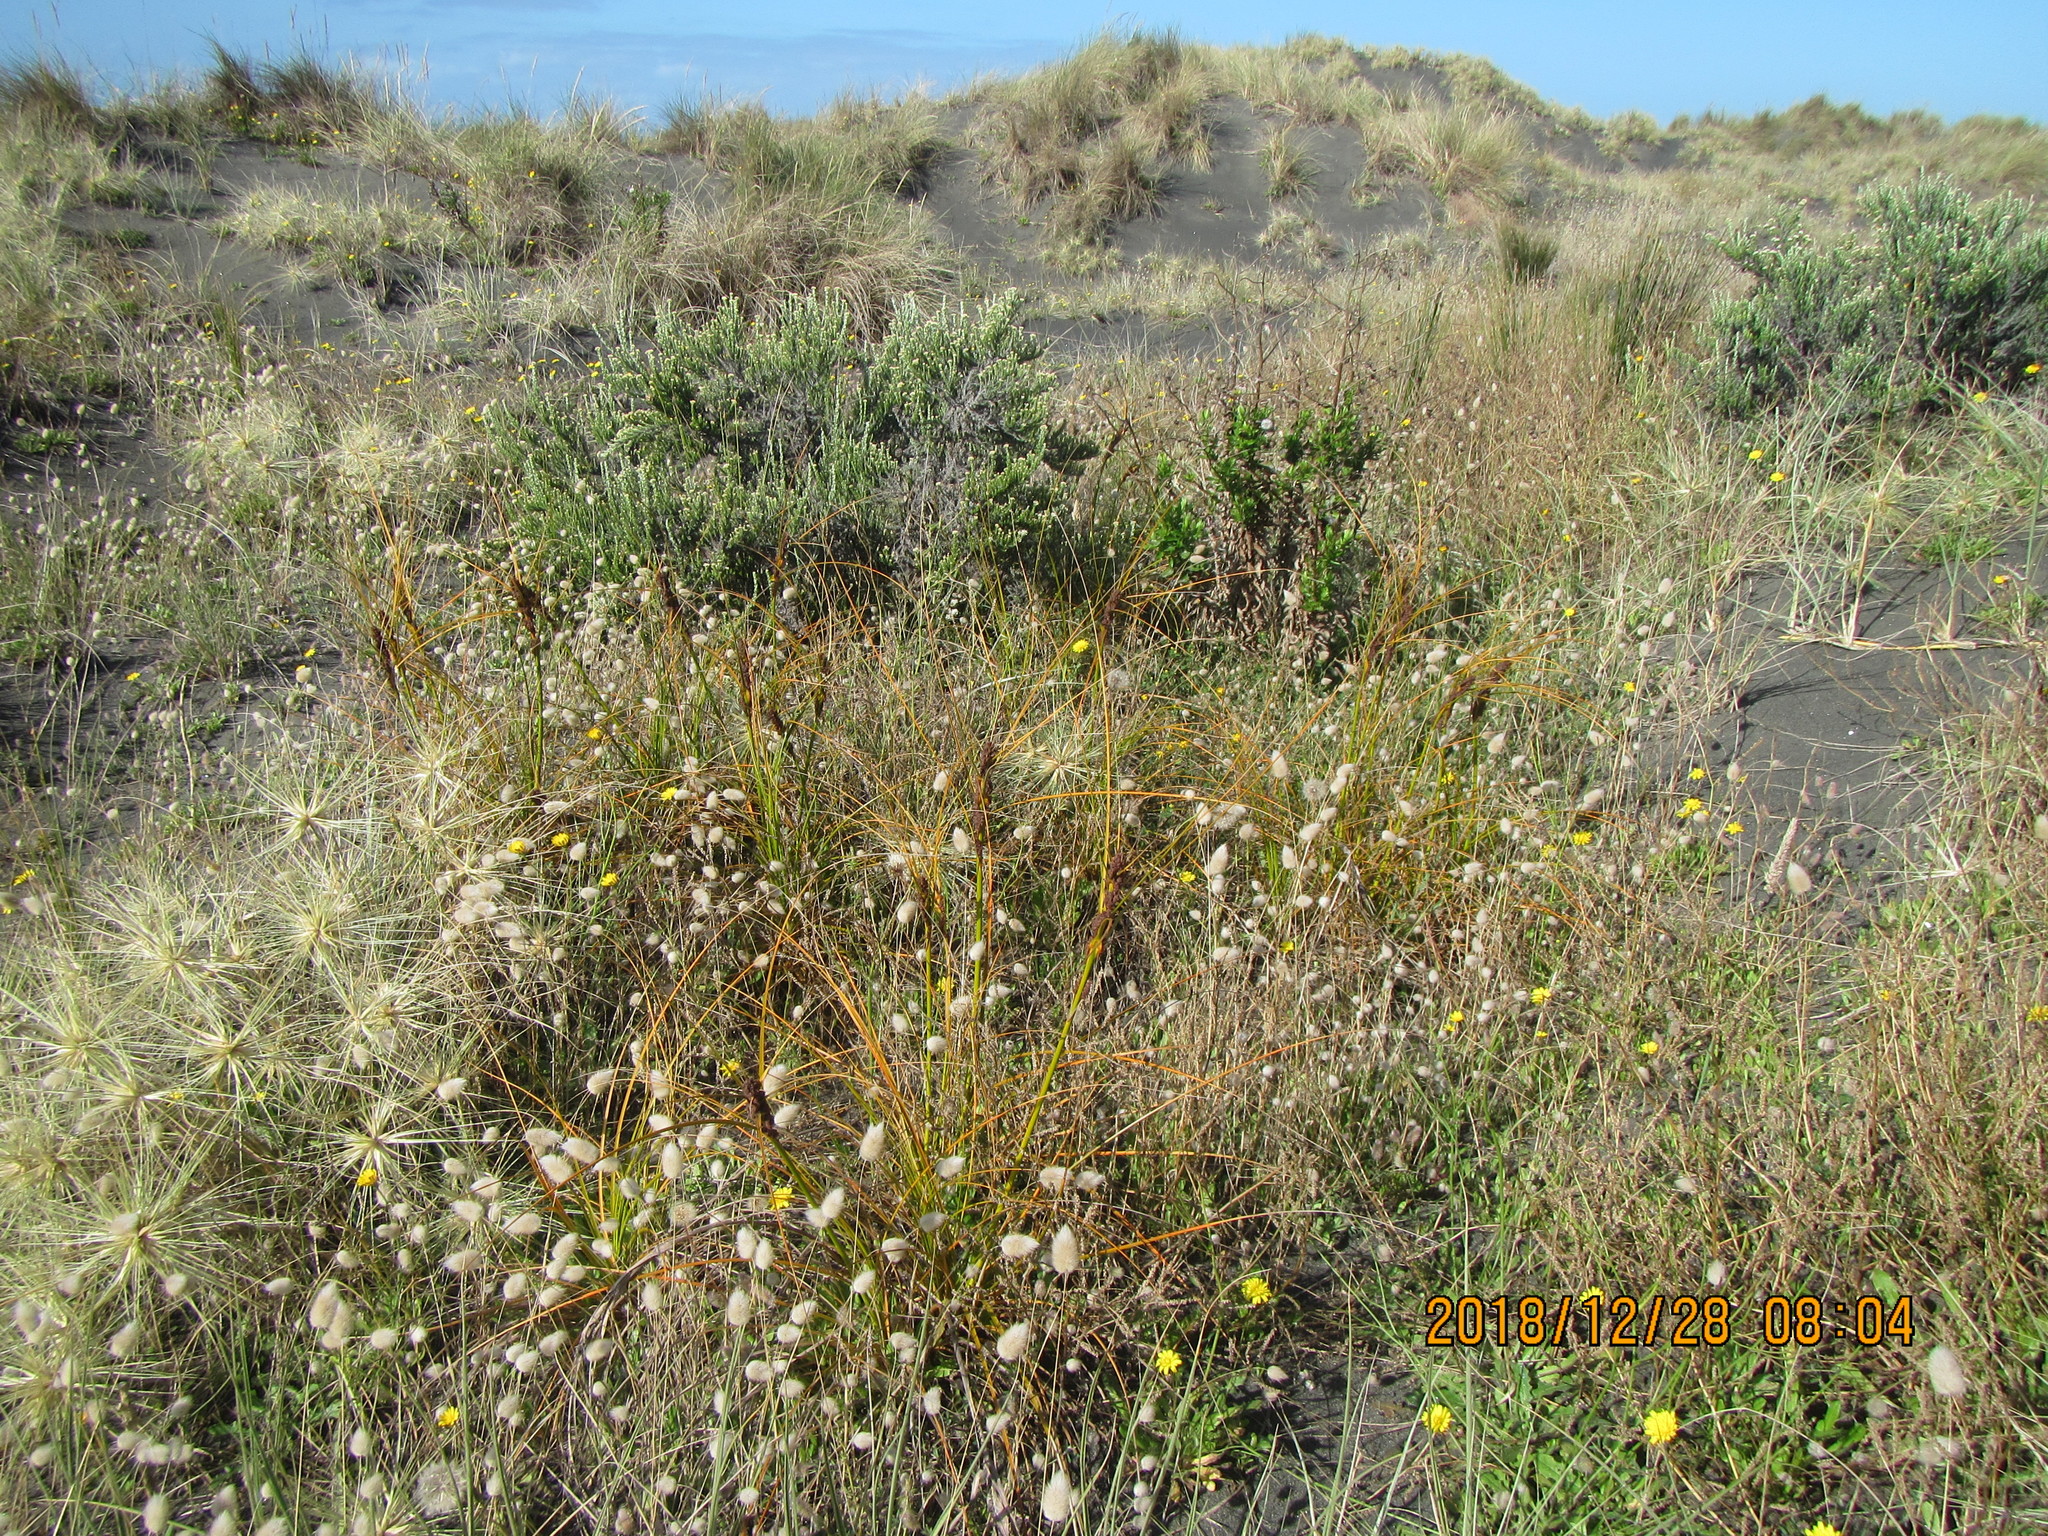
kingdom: Plantae
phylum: Tracheophyta
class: Liliopsida
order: Poales
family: Cyperaceae
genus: Ficinia
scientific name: Ficinia spiralis
